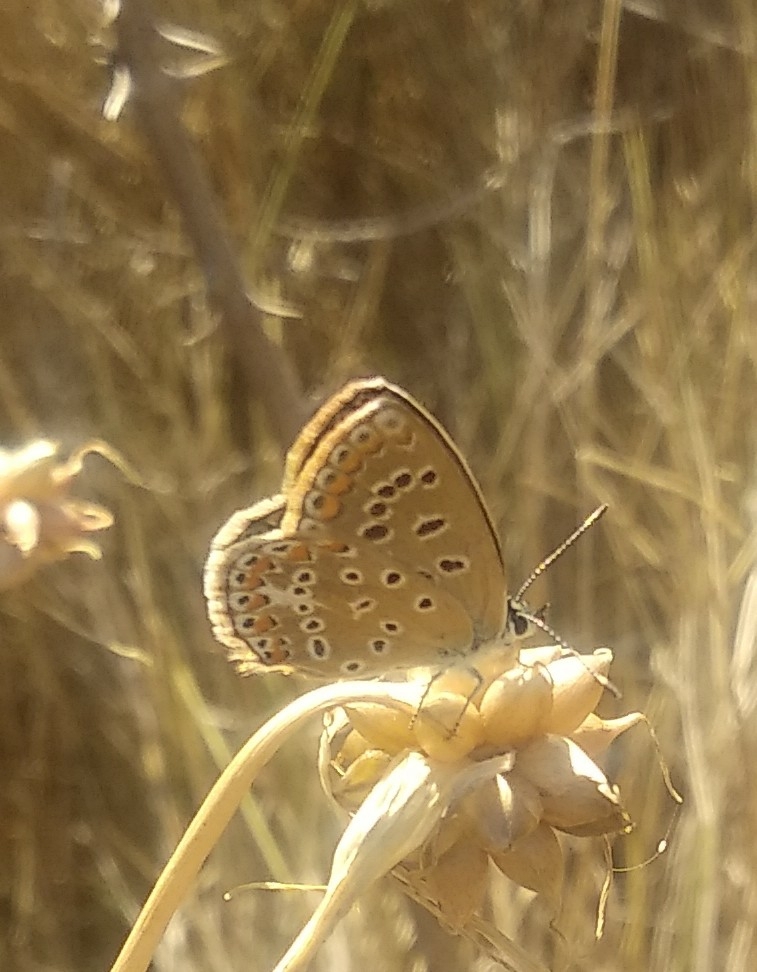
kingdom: Animalia
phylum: Arthropoda
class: Insecta
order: Lepidoptera
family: Lycaenidae
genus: Polyommatus
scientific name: Polyommatus icarus
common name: Common blue
